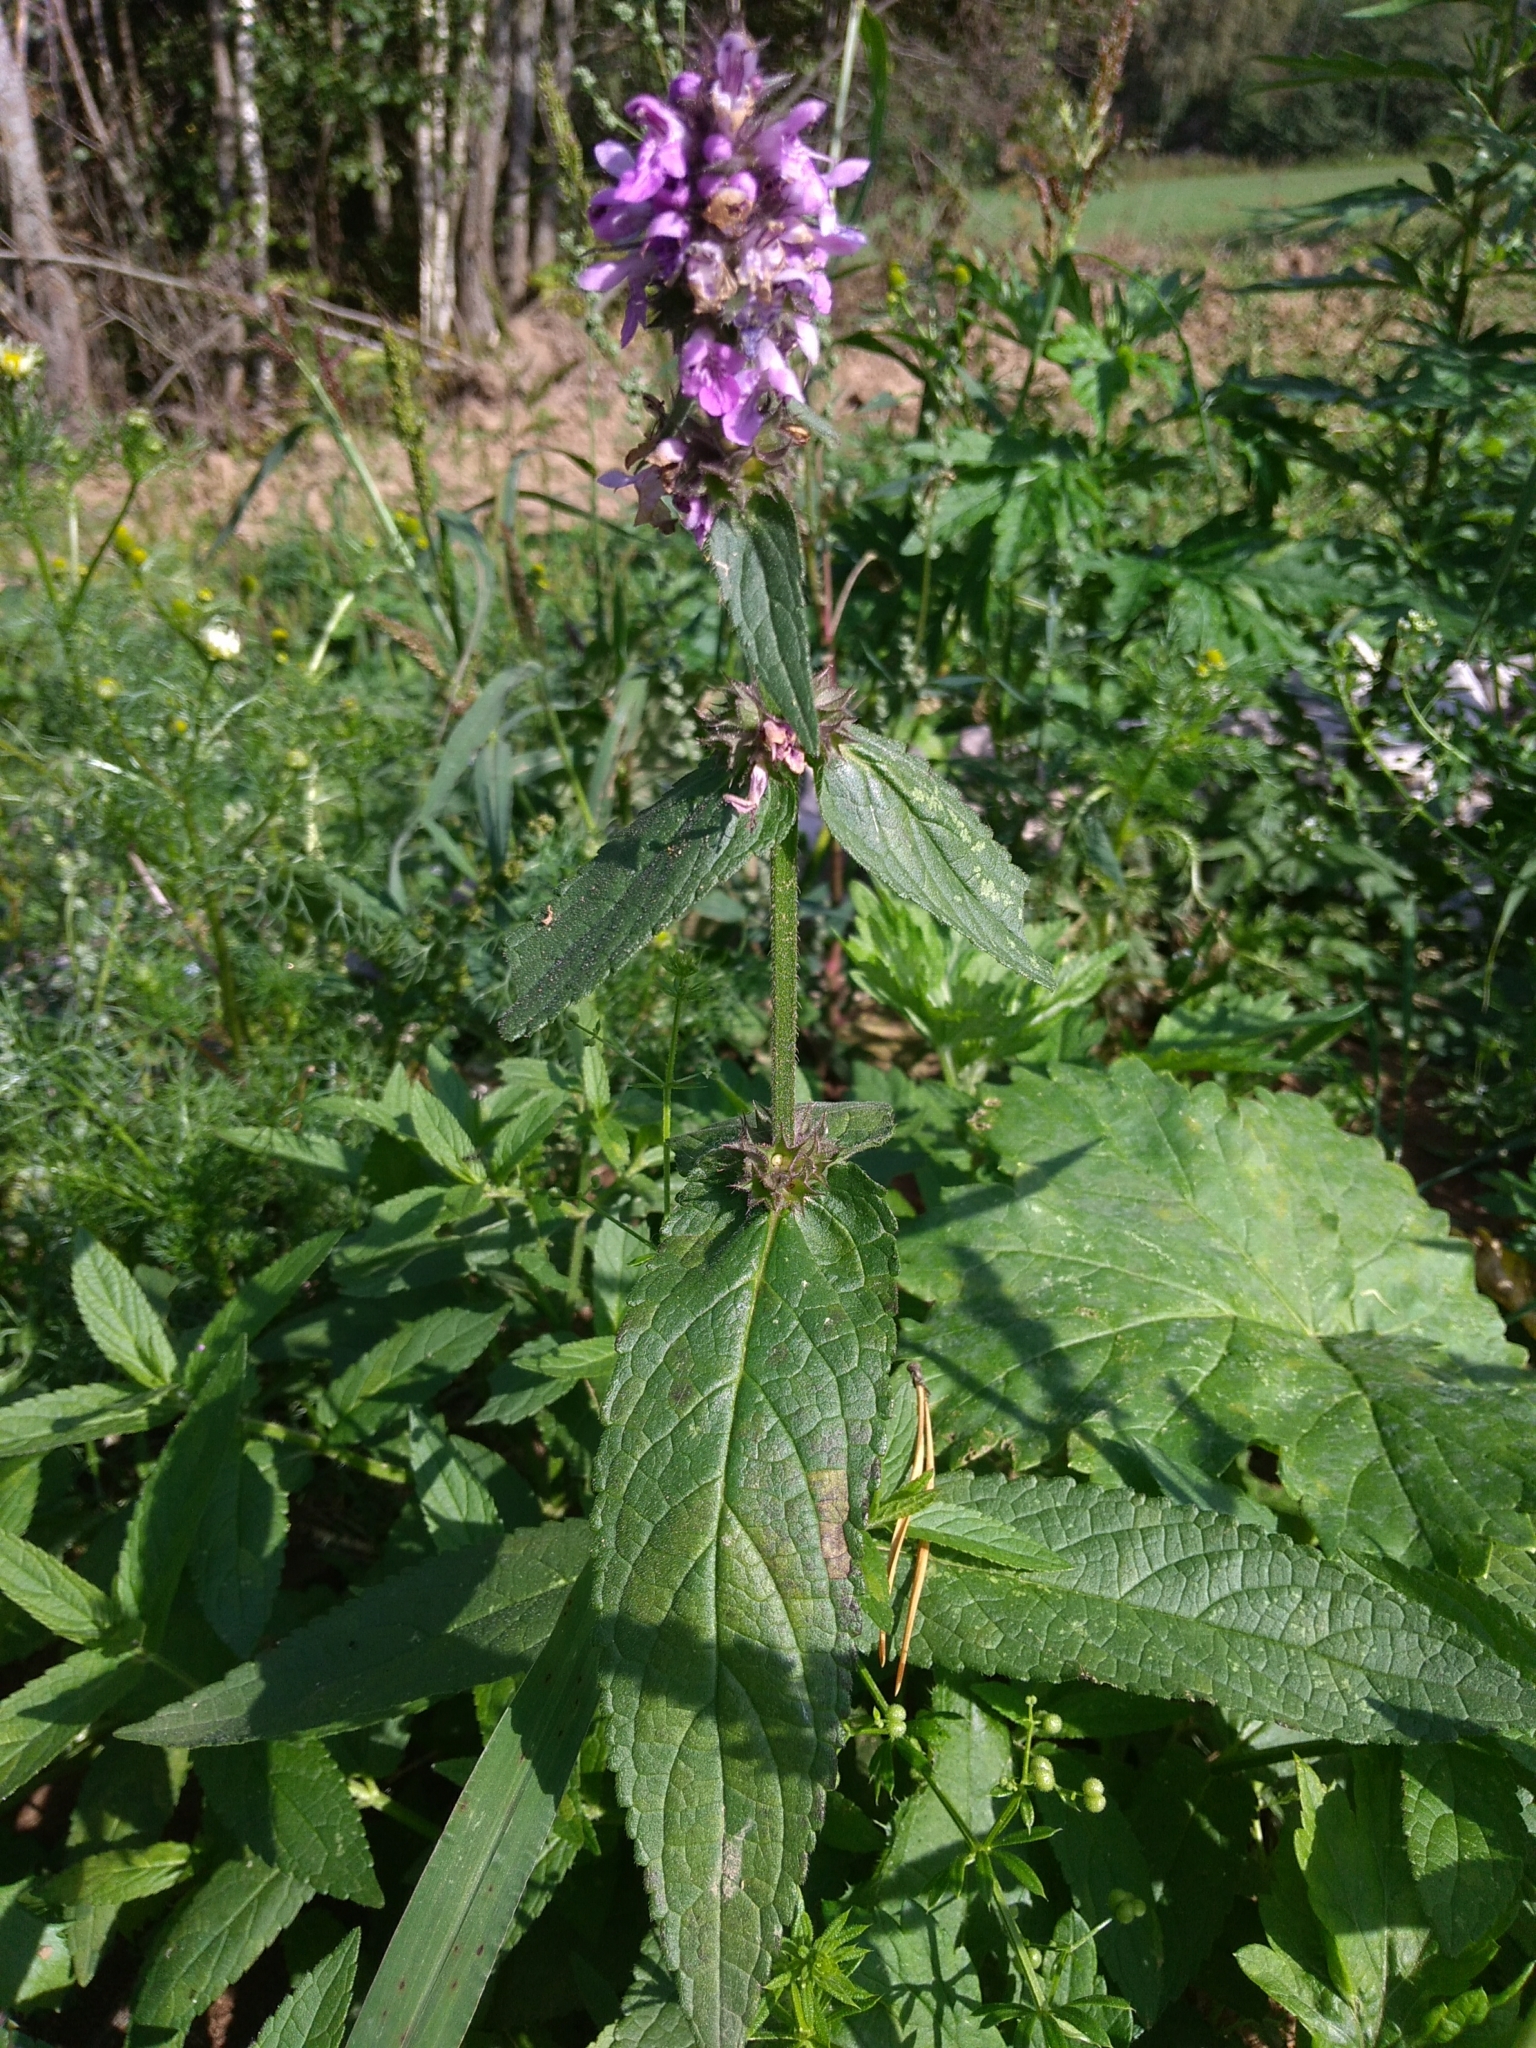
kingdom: Plantae
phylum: Tracheophyta
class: Magnoliopsida
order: Lamiales
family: Lamiaceae
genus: Stachys
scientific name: Stachys palustris
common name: Marsh woundwort
